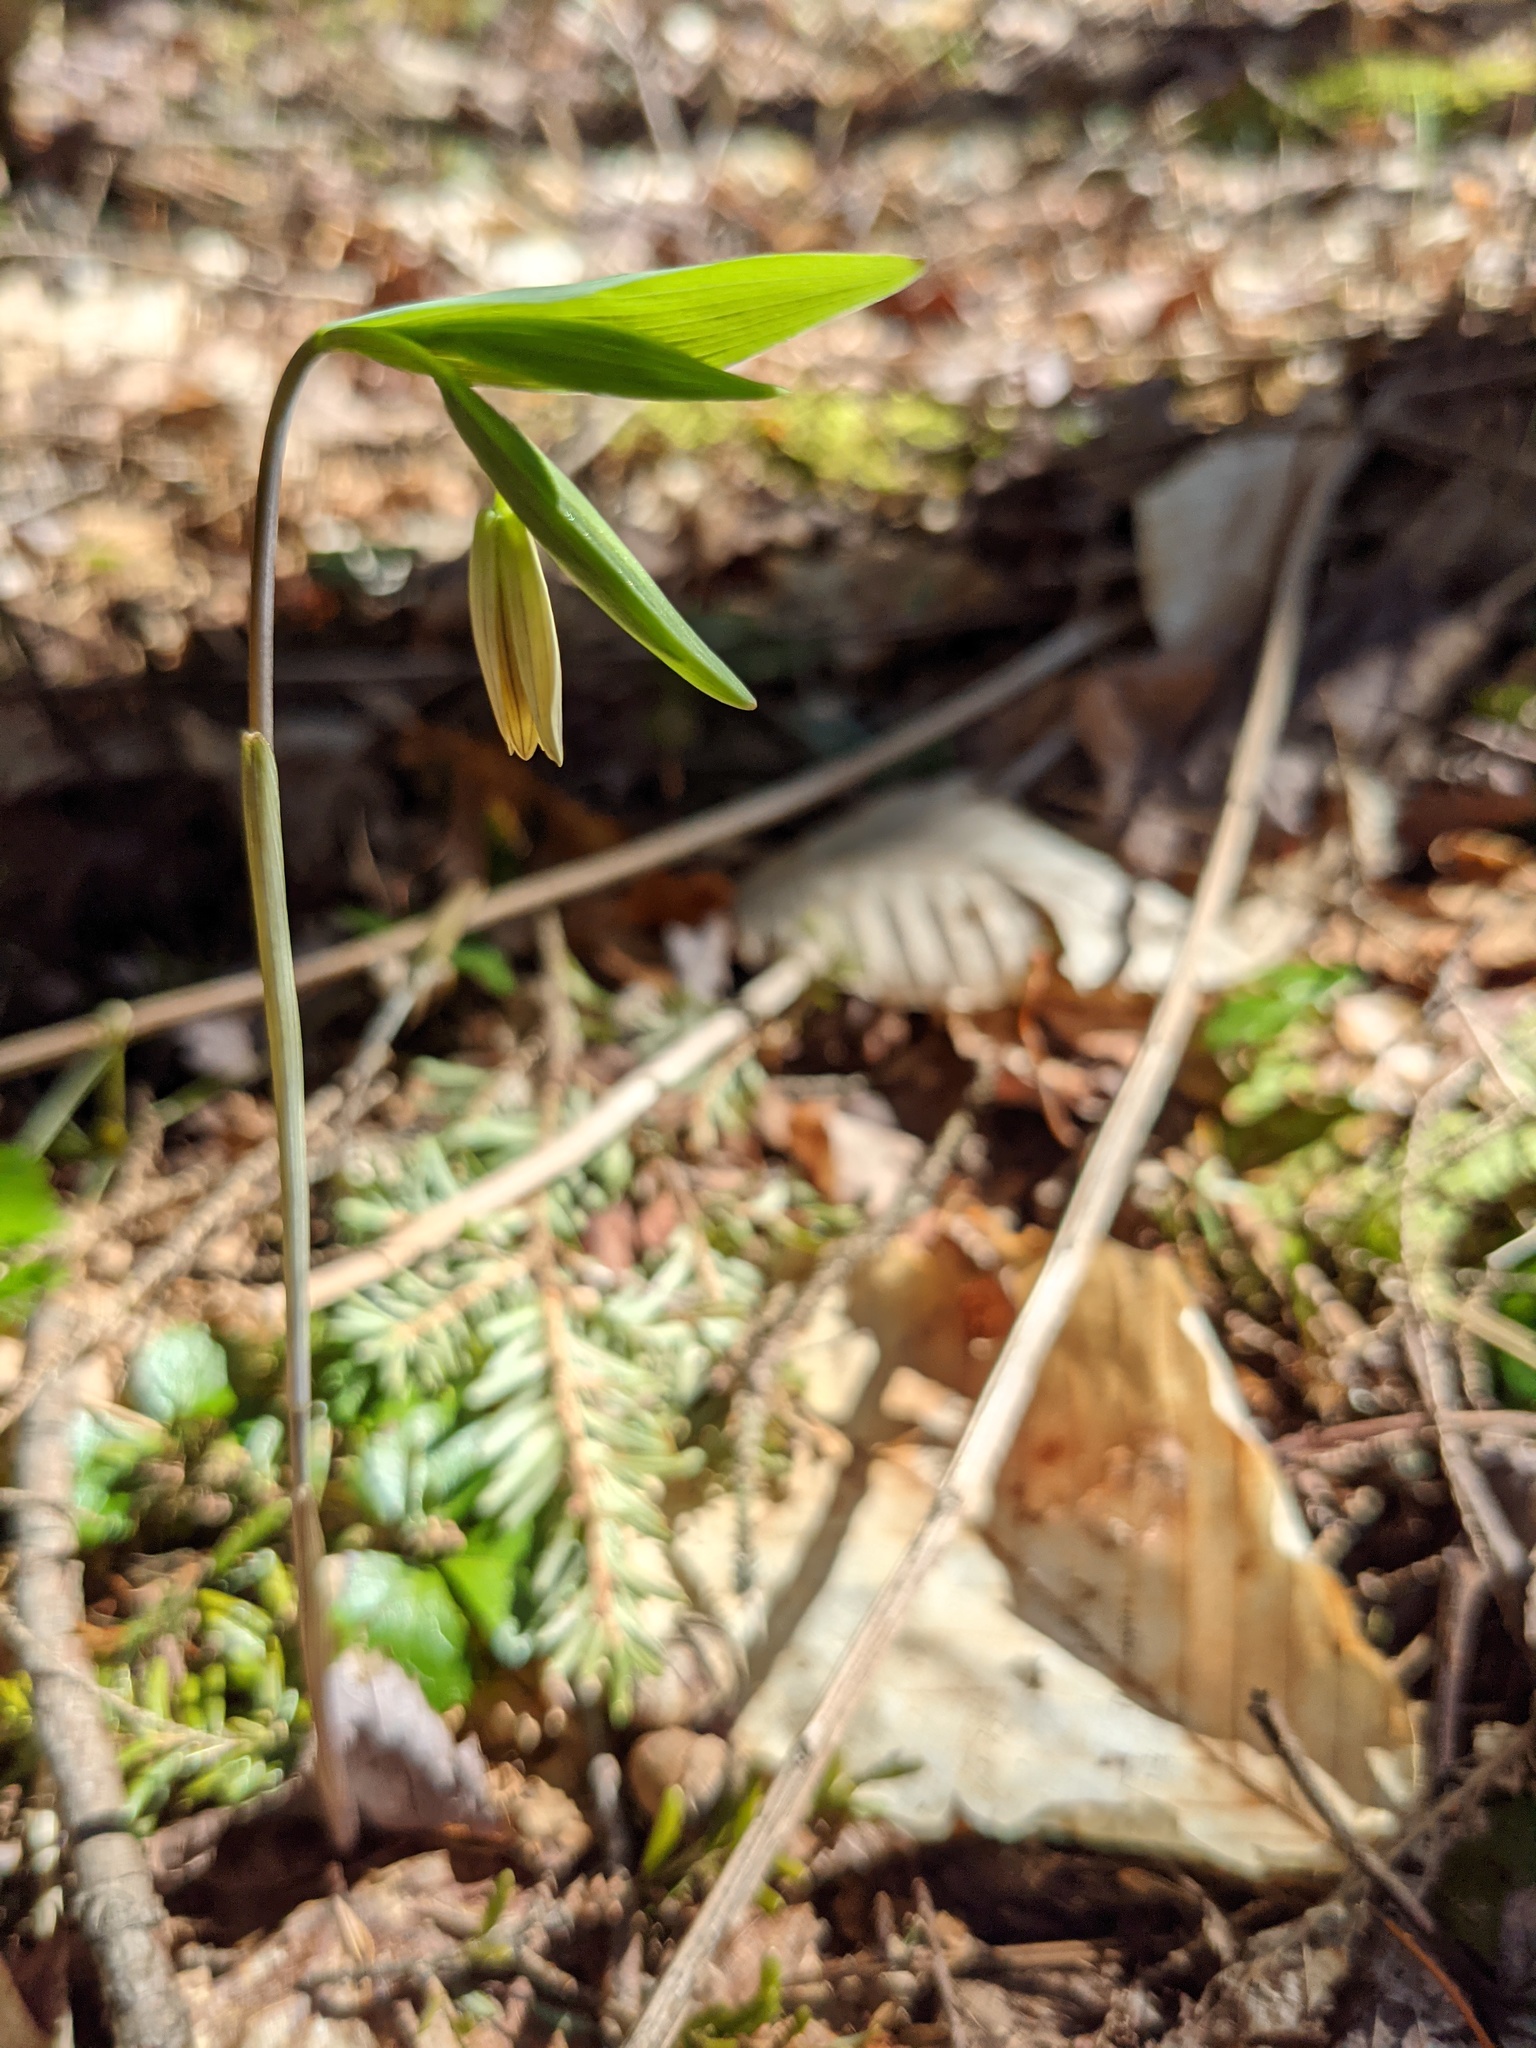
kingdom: Plantae
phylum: Tracheophyta
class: Liliopsida
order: Liliales
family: Colchicaceae
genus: Uvularia
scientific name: Uvularia sessilifolia
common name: Straw-lily
